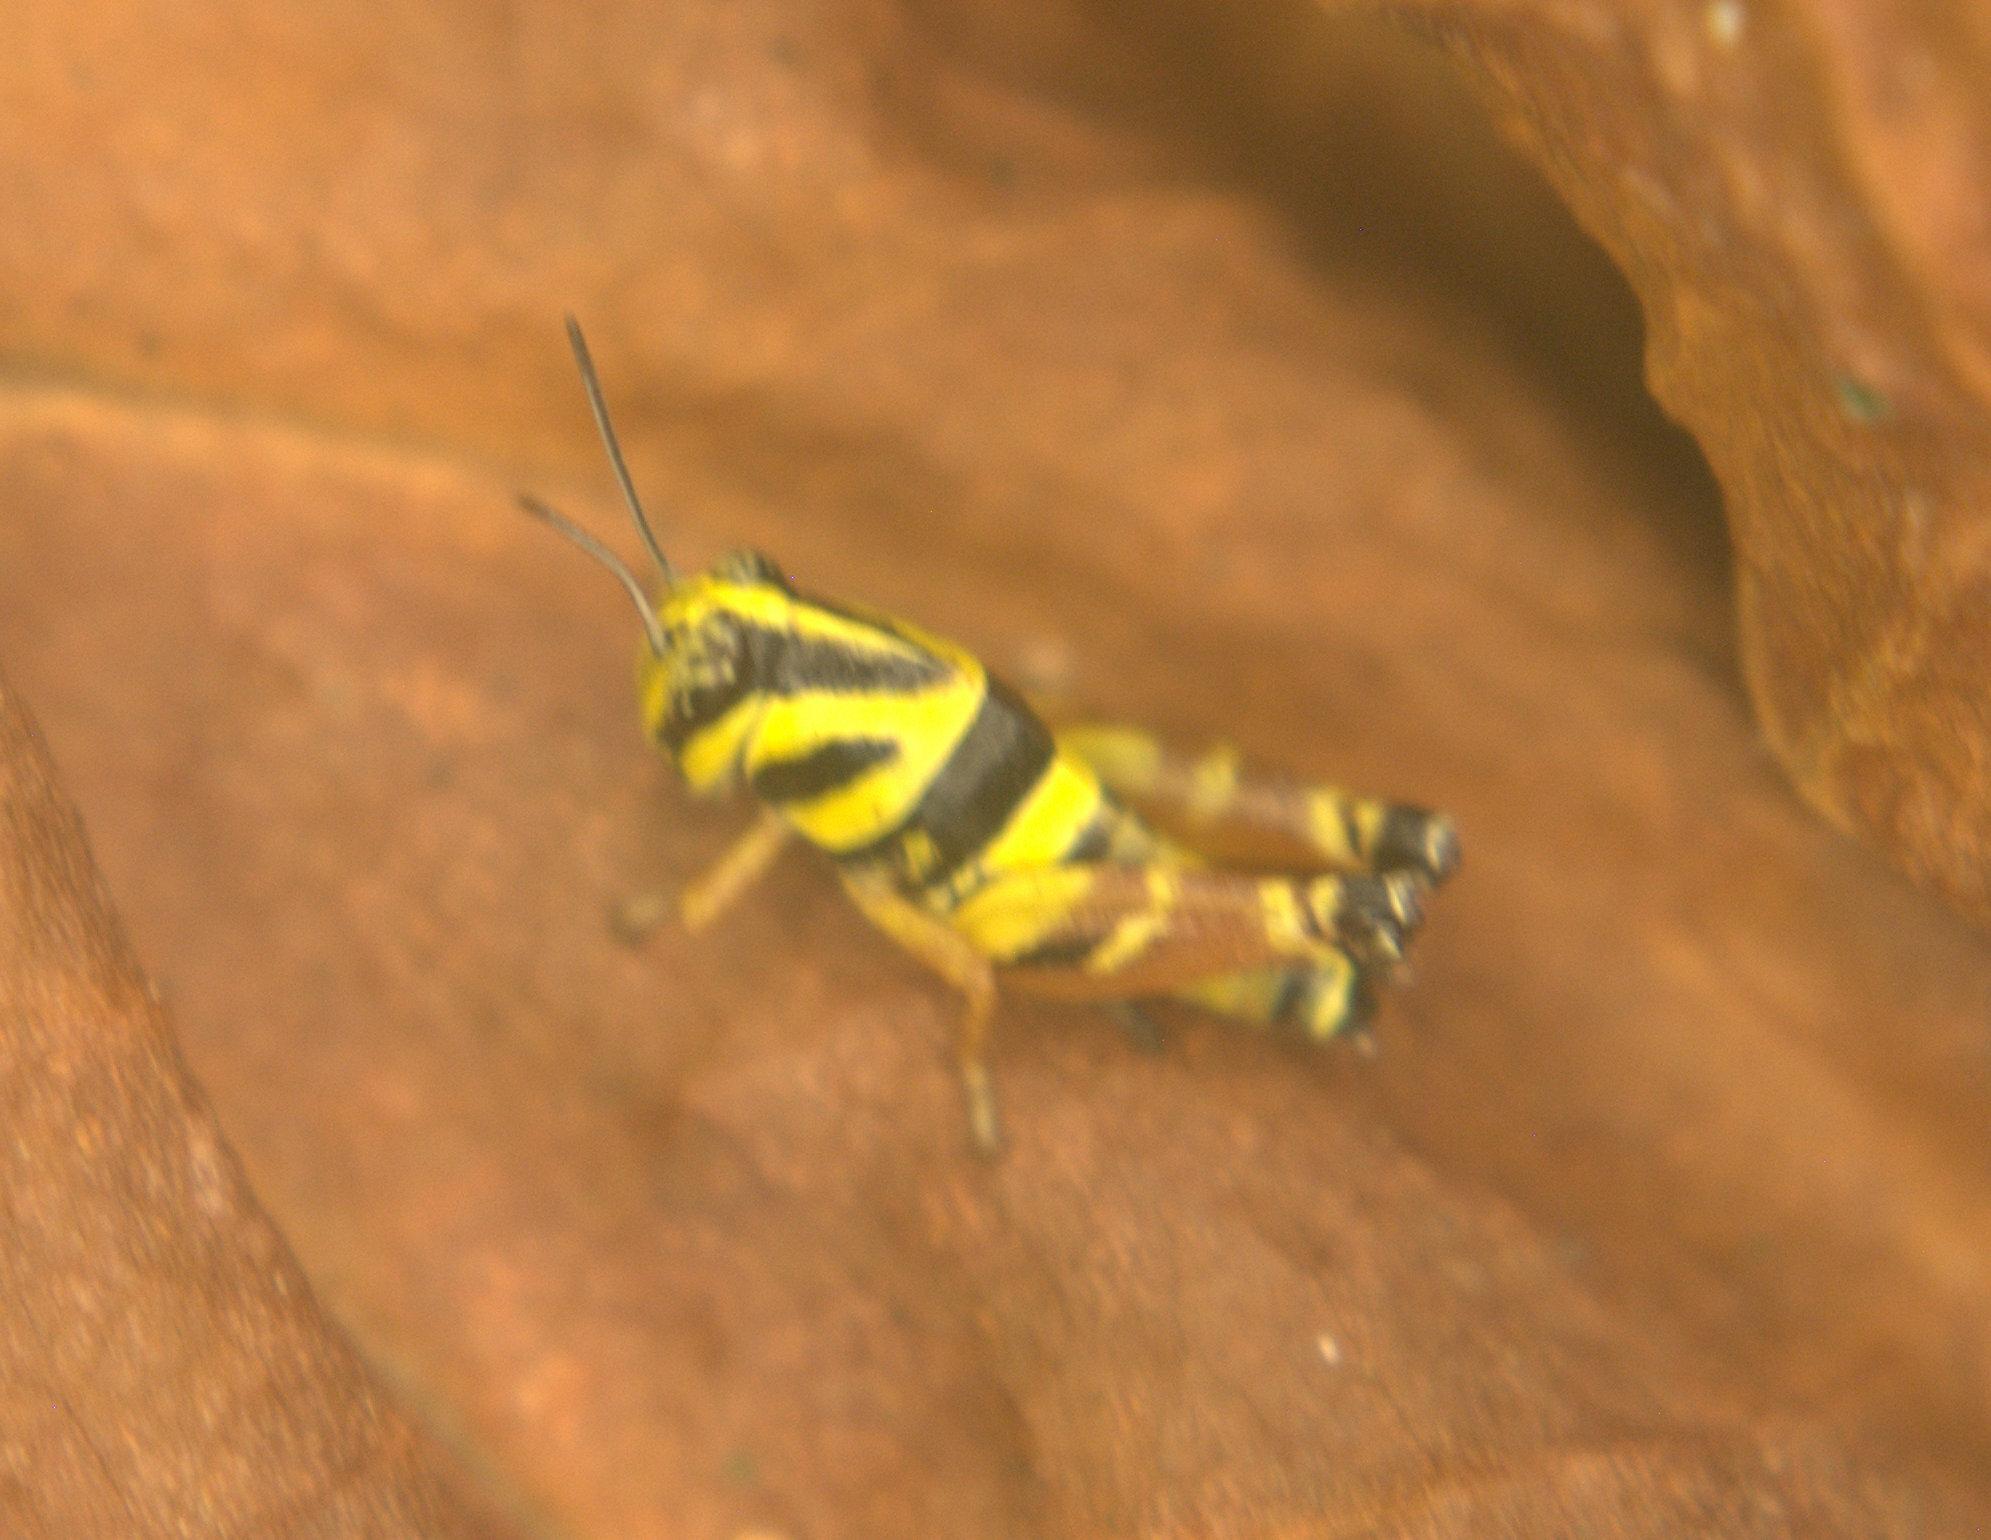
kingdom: Animalia
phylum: Arthropoda
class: Insecta
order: Orthoptera
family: Acrididae
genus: Aidemona
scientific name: Aidemona azteca
